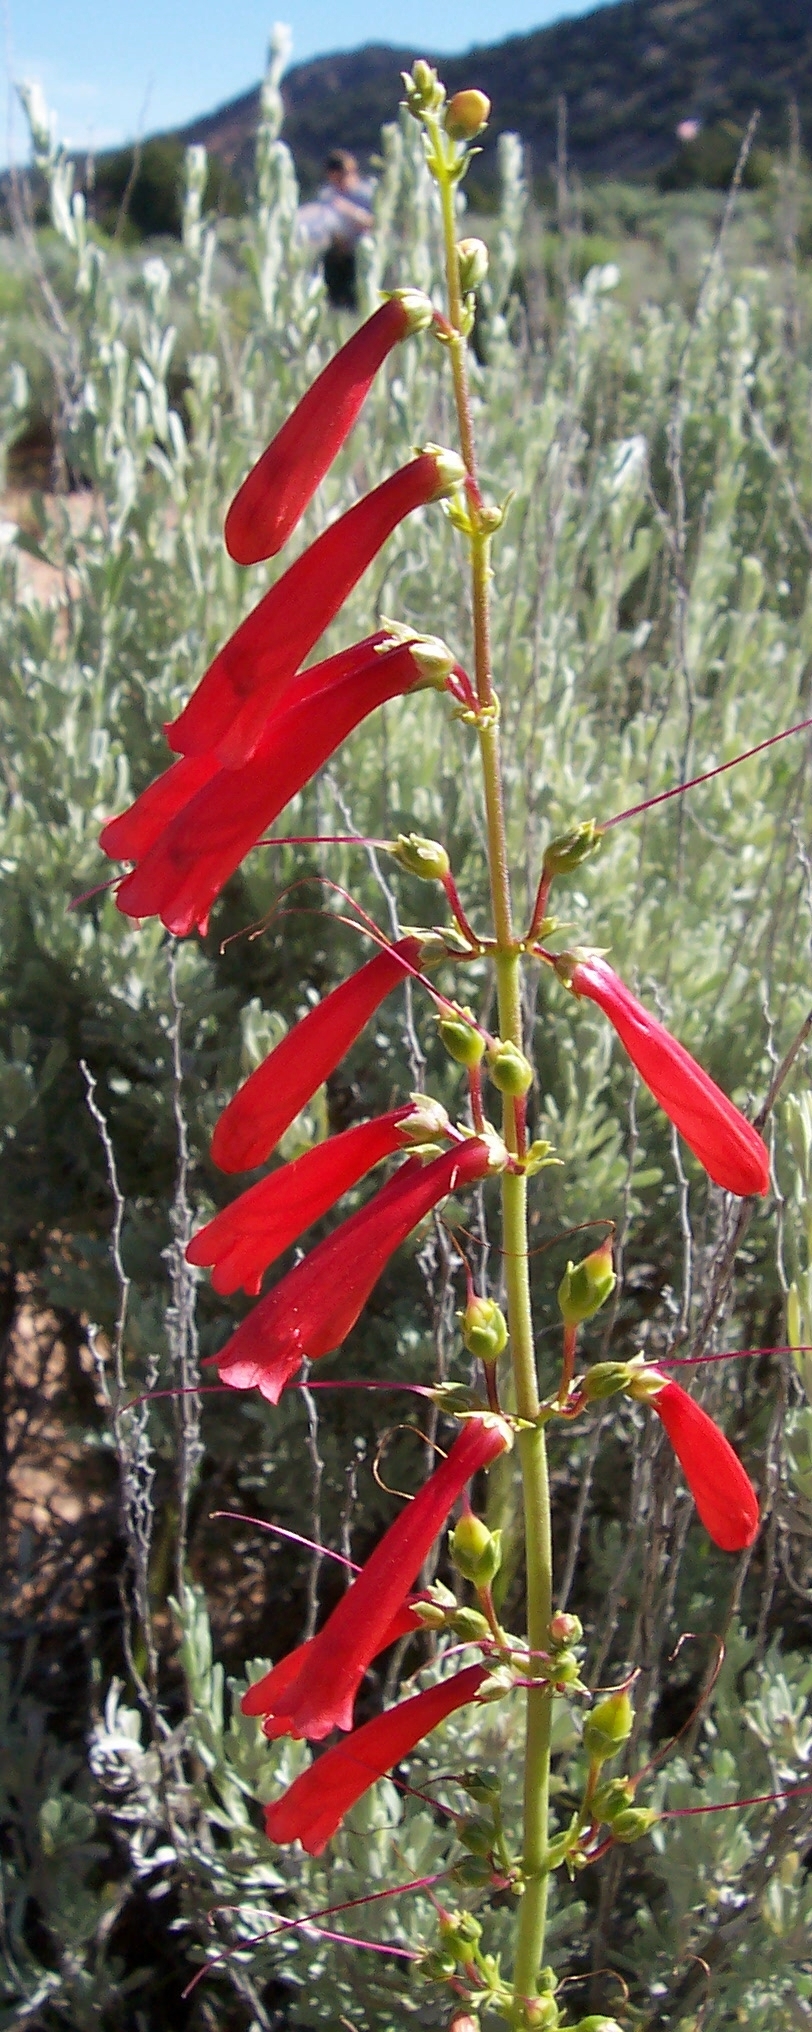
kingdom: Plantae
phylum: Tracheophyta
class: Magnoliopsida
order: Lamiales
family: Plantaginaceae
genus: Penstemon
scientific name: Penstemon eatonii
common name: Eaton's penstemon
